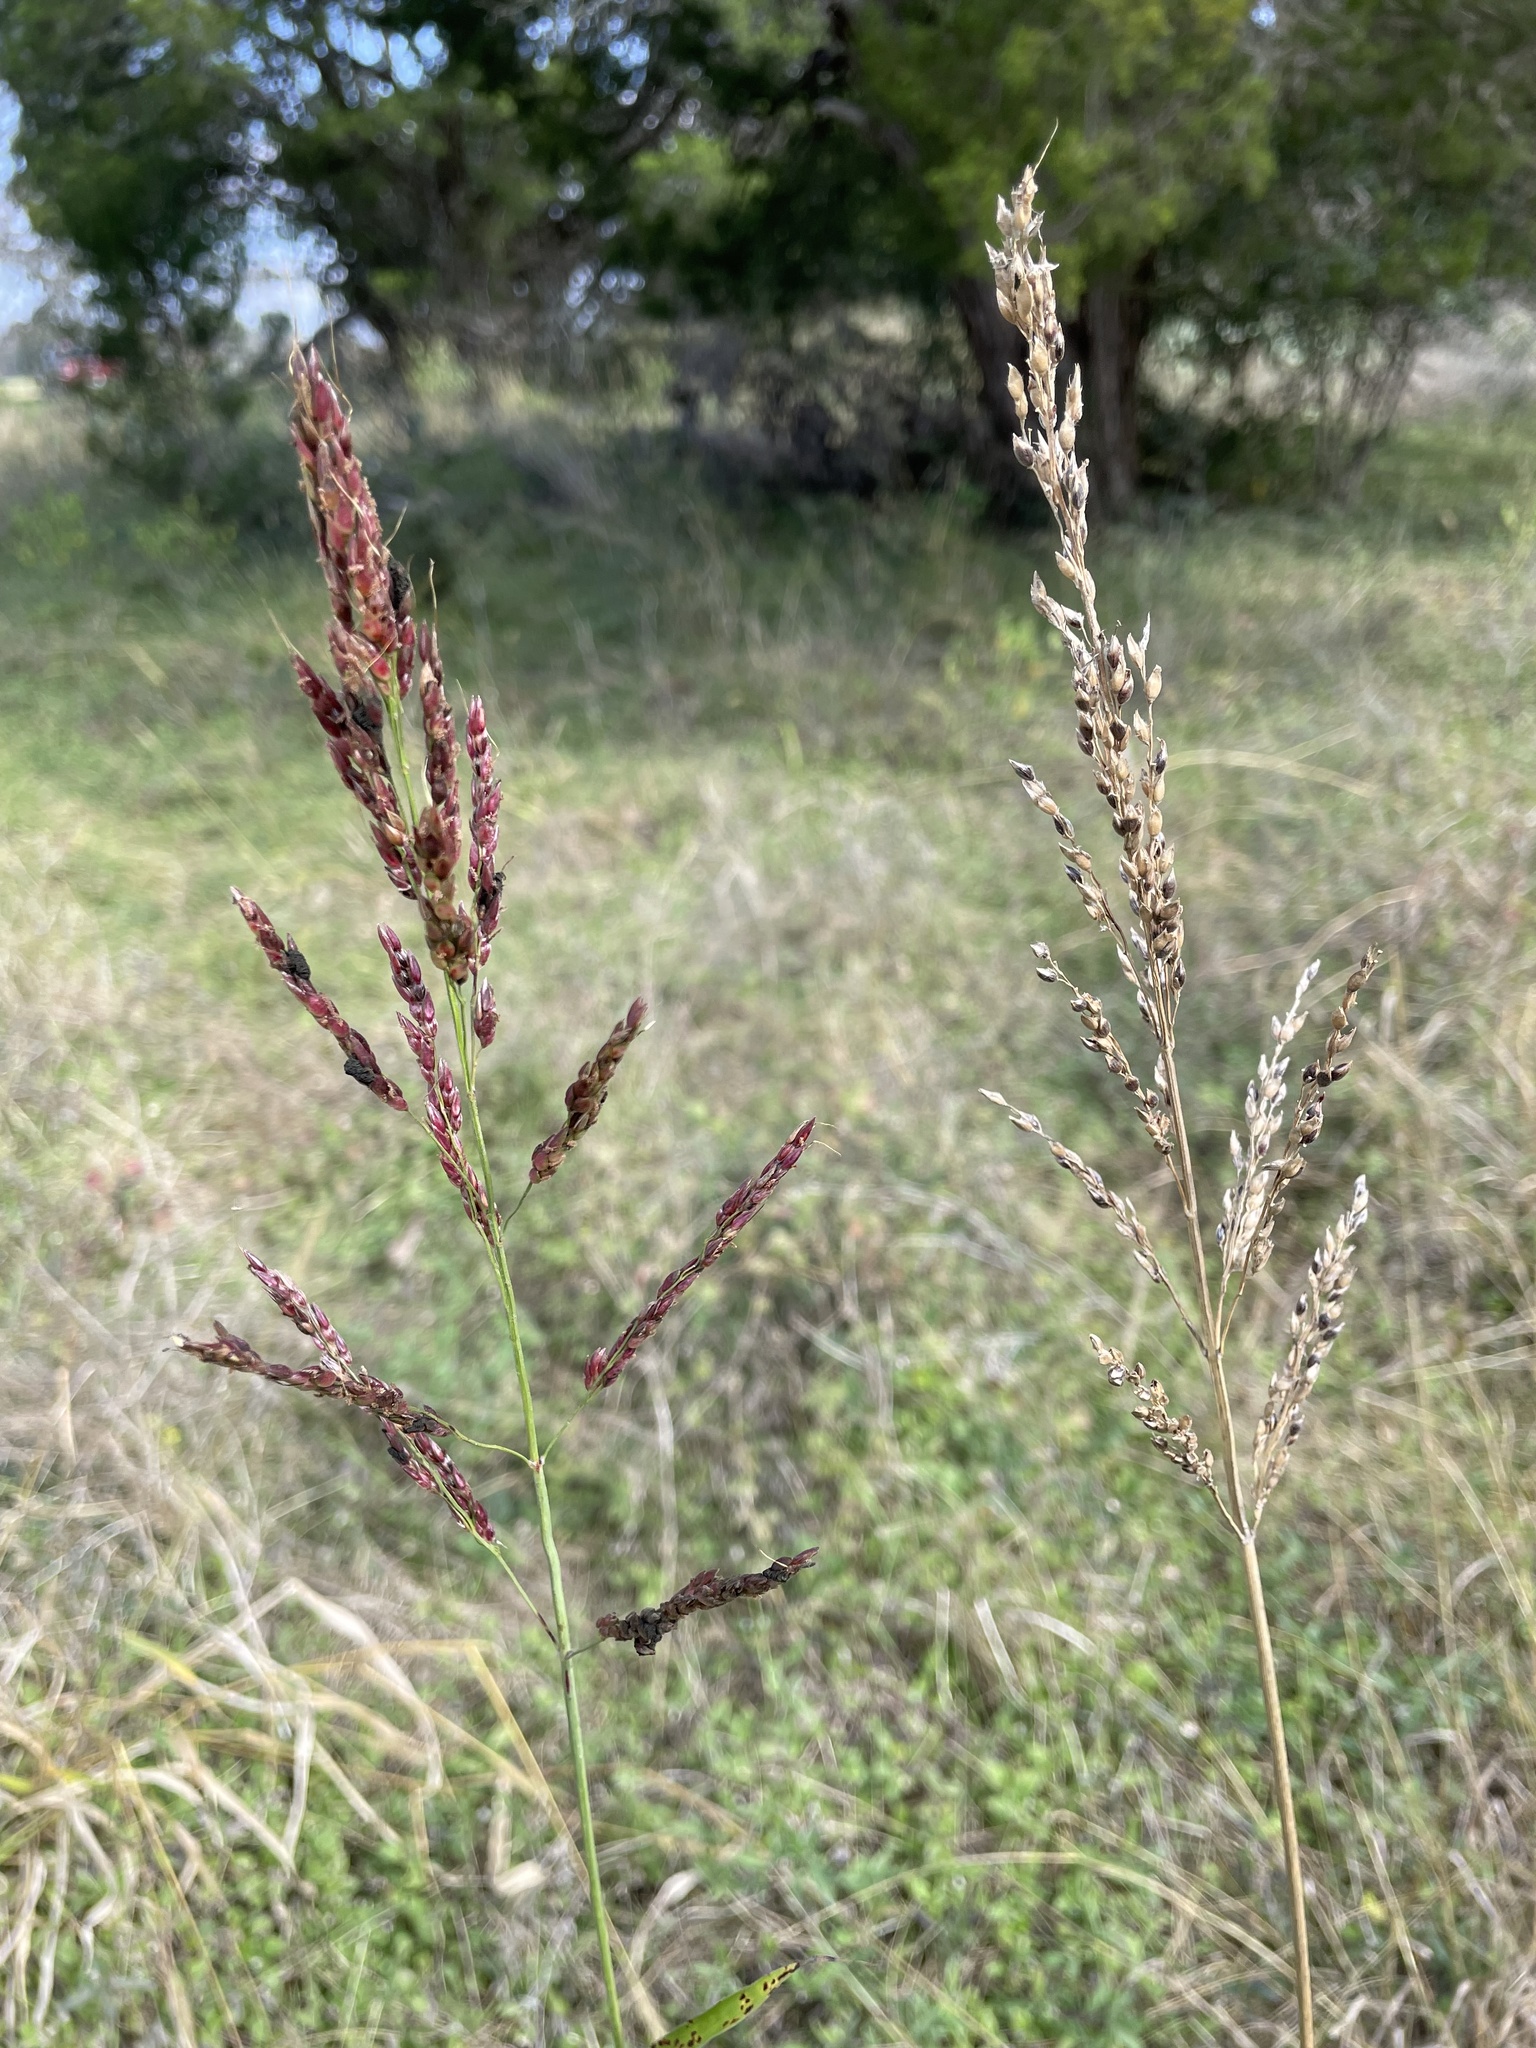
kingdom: Plantae
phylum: Tracheophyta
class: Liliopsida
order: Poales
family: Poaceae
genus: Sorghum
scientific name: Sorghum halepense
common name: Johnson-grass
